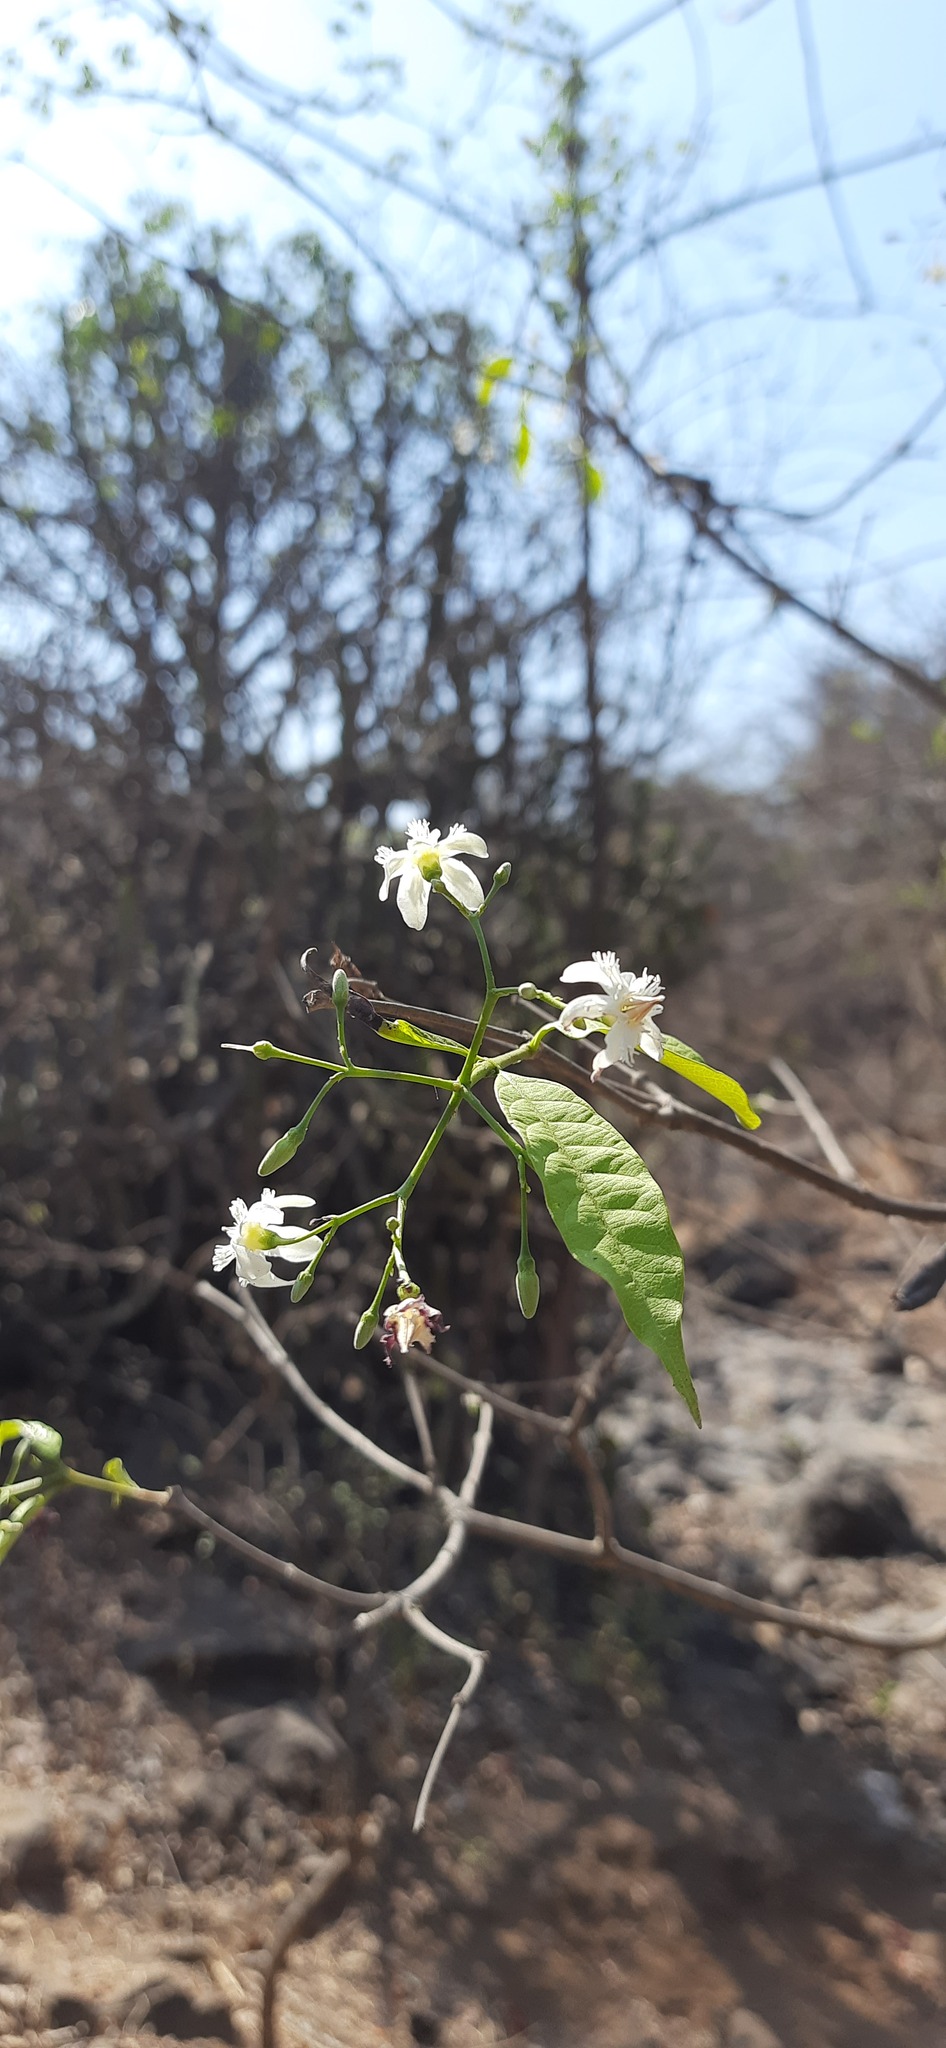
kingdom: Plantae
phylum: Tracheophyta
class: Magnoliopsida
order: Gentianales
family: Apocynaceae
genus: Wrightia
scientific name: Wrightia tinctoria
